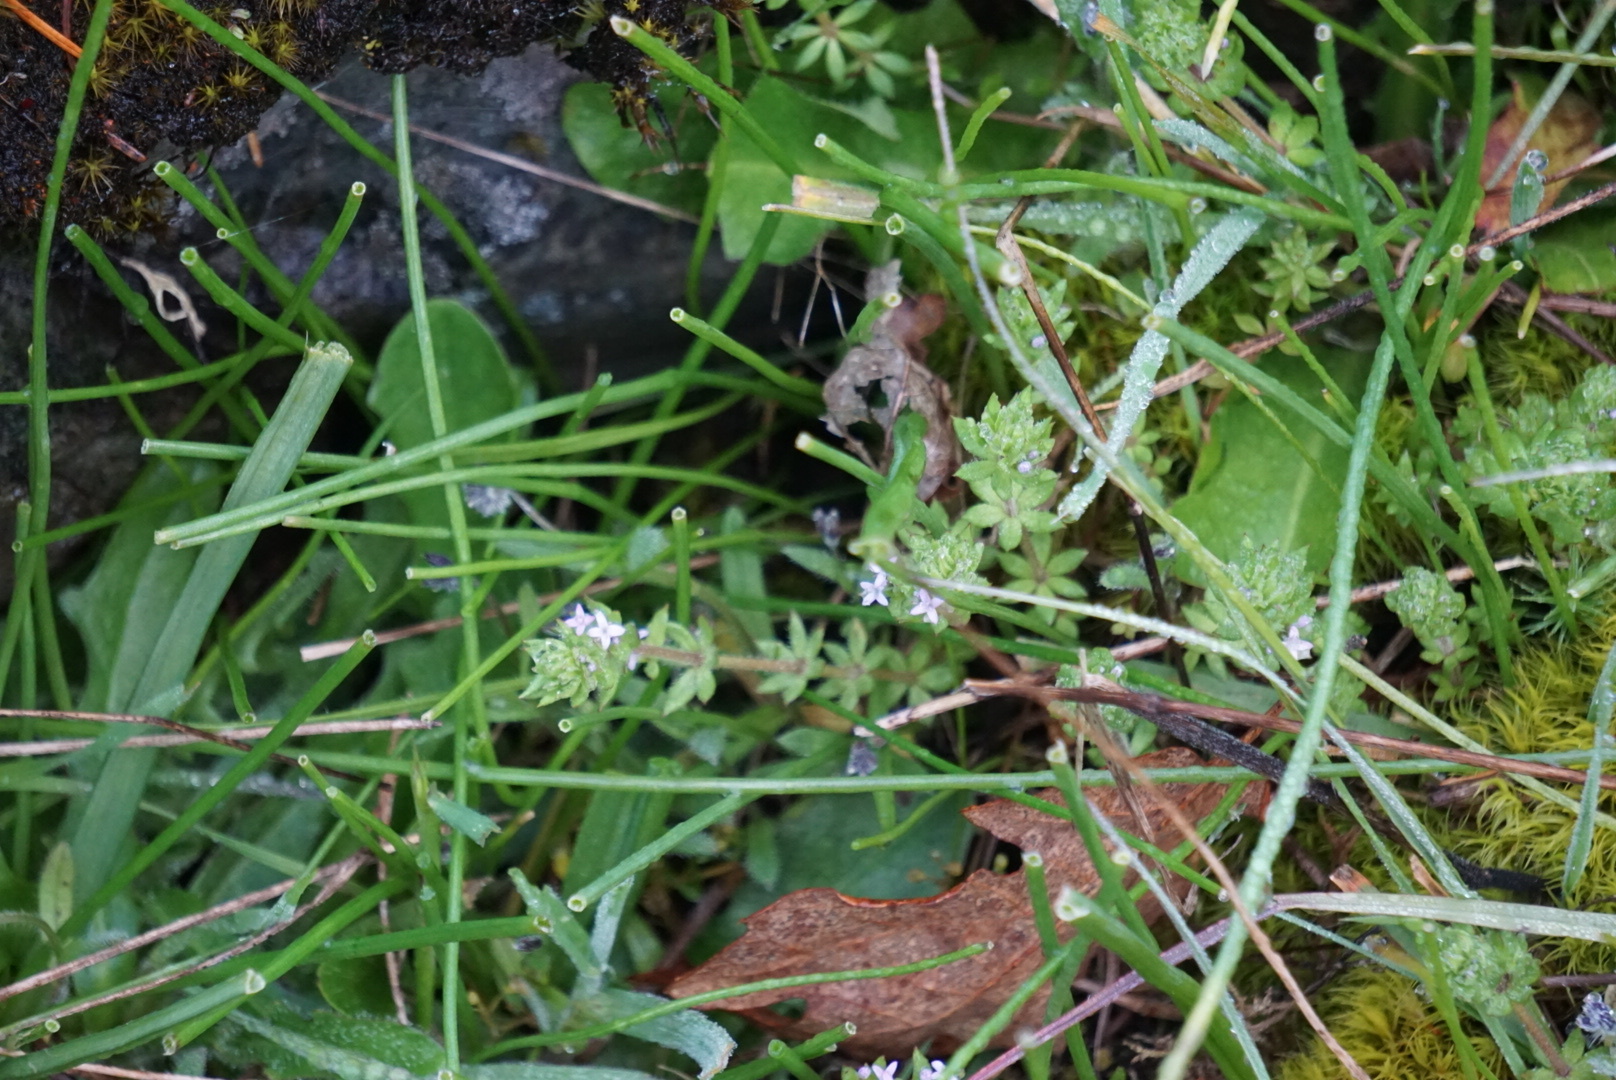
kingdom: Plantae
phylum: Tracheophyta
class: Magnoliopsida
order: Gentianales
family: Rubiaceae
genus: Sherardia
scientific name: Sherardia arvensis
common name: Field madder
